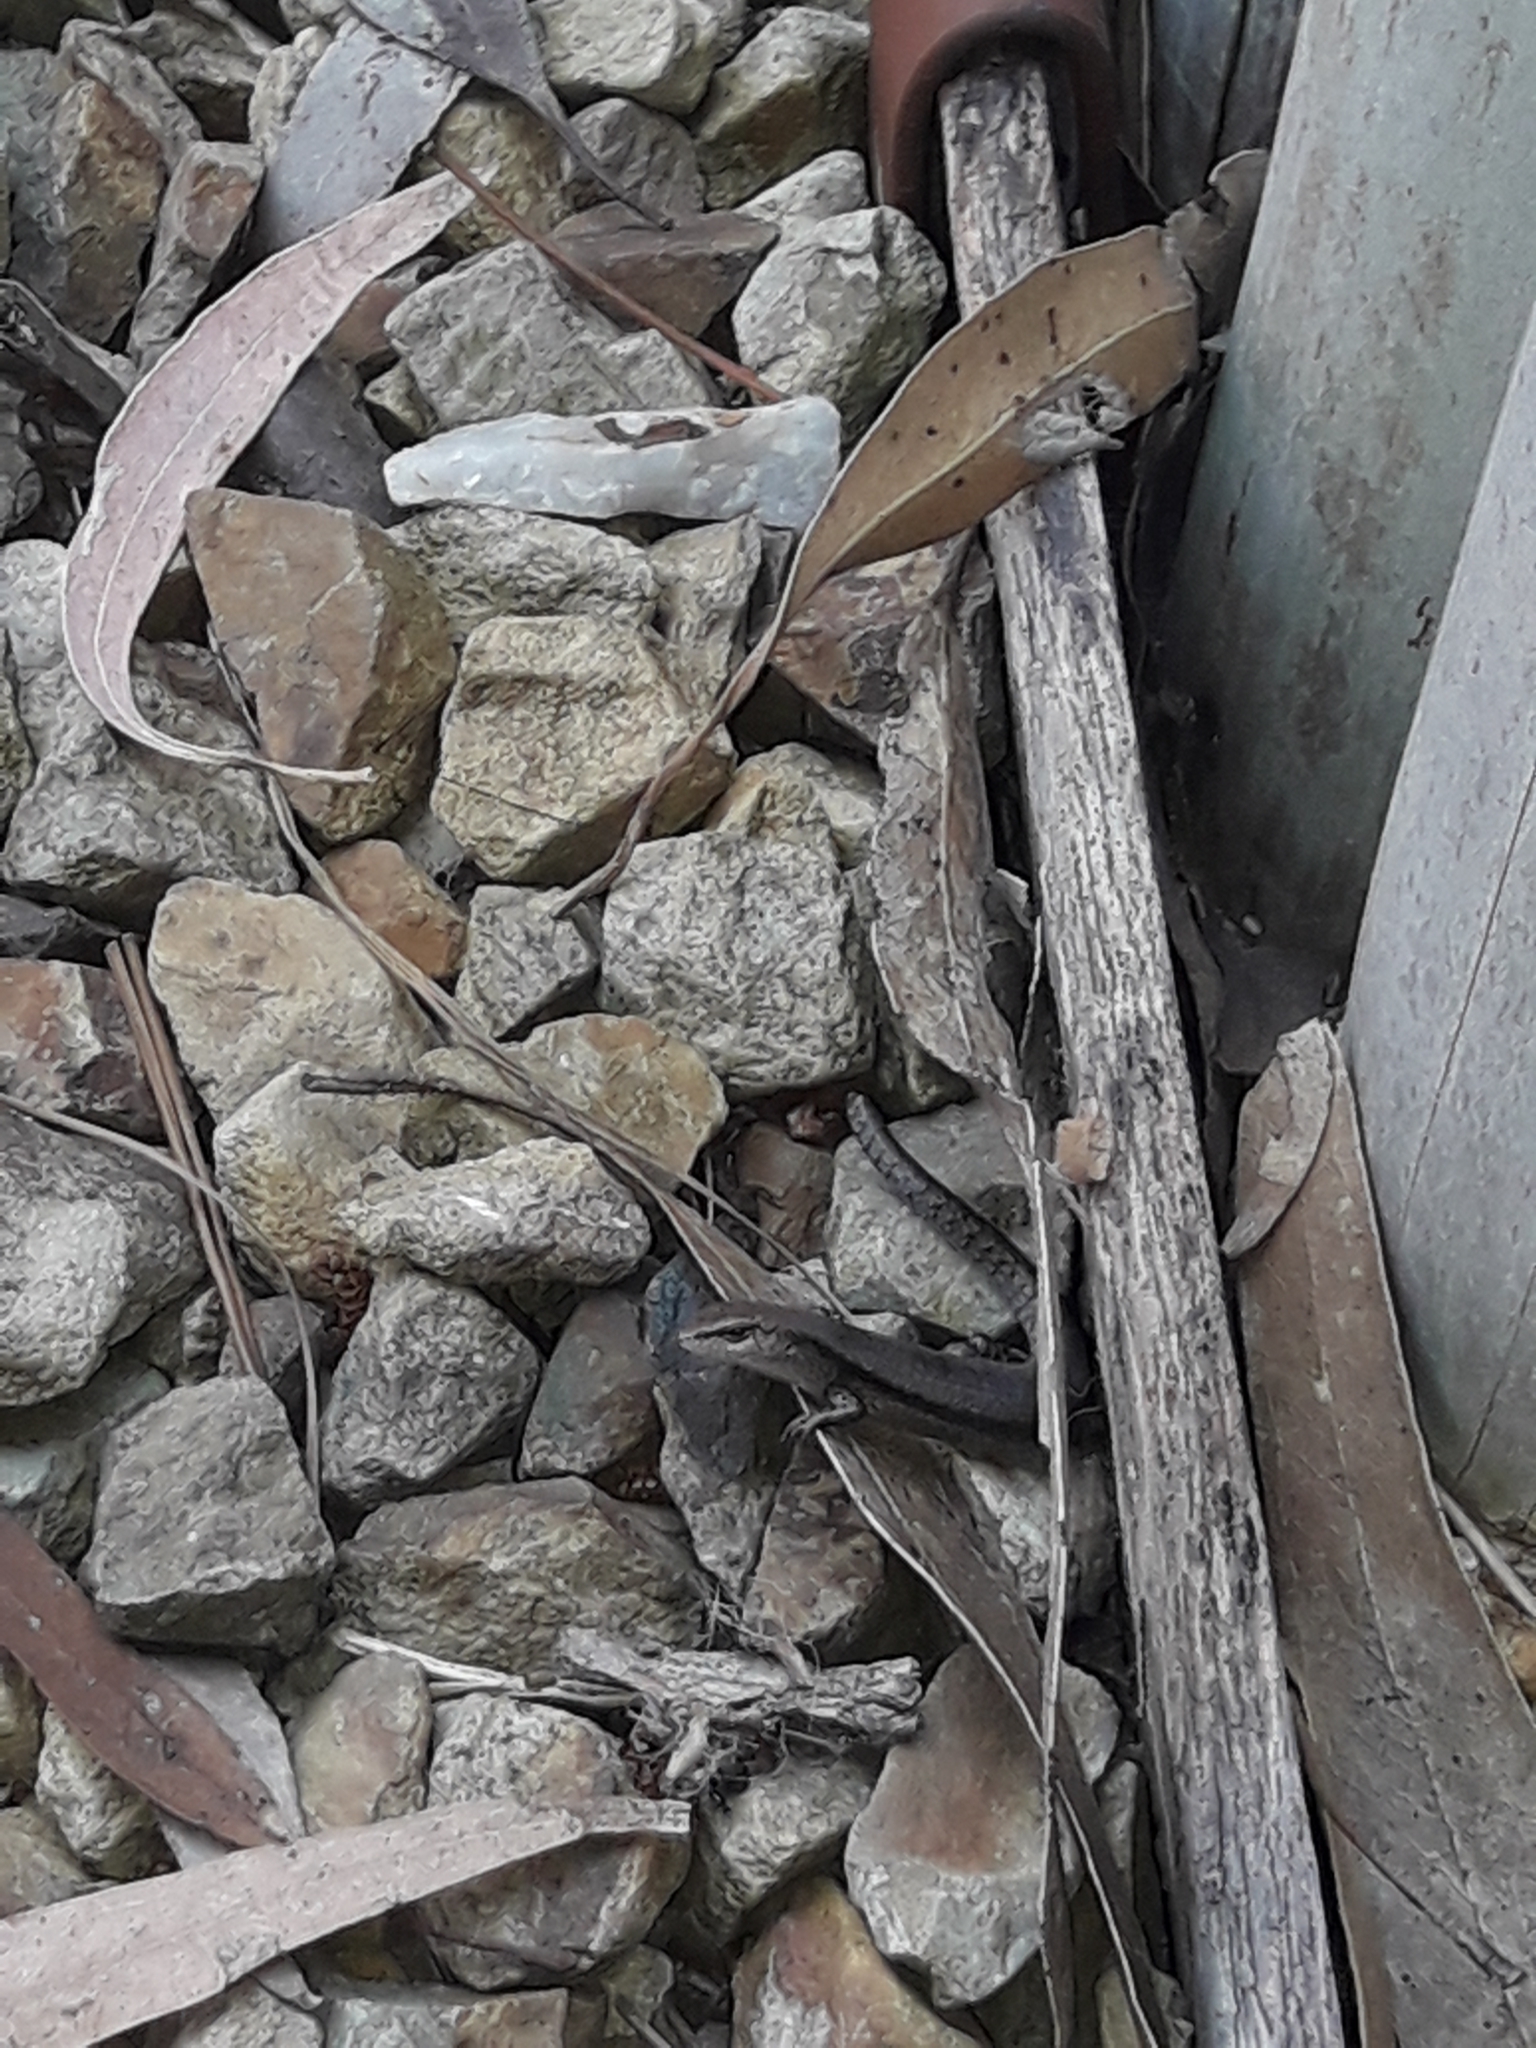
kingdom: Animalia
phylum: Chordata
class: Squamata
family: Scincidae
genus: Lampropholis
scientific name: Lampropholis guichenoti
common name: Garden skink
